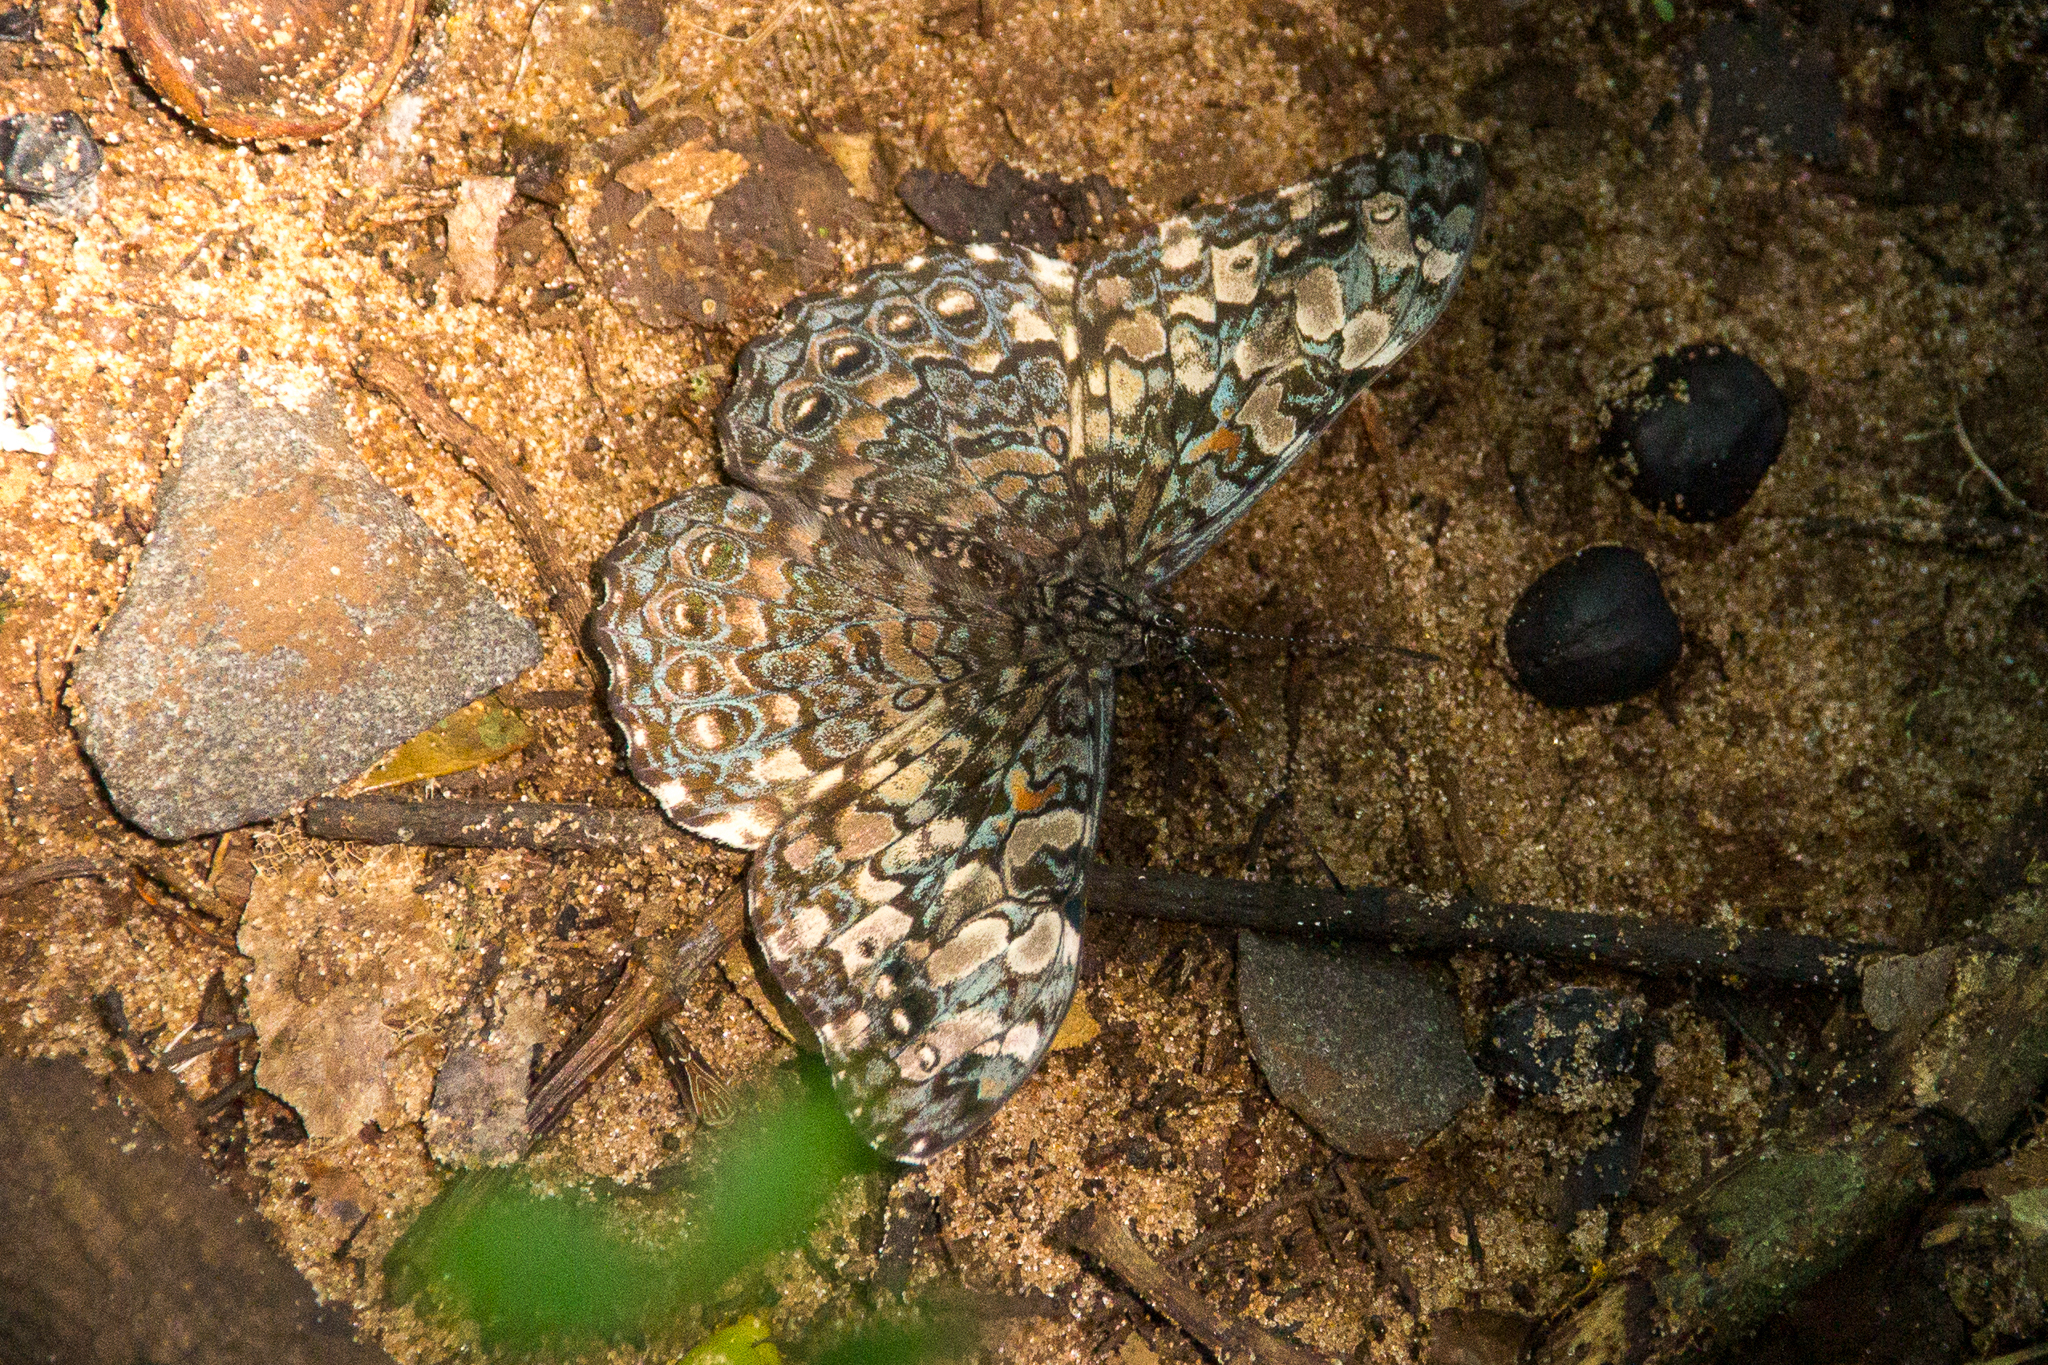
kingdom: Animalia
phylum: Arthropoda
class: Insecta
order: Lepidoptera
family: Nymphalidae
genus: Hamadryas
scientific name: Hamadryas epinome
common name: Epinome cracker
